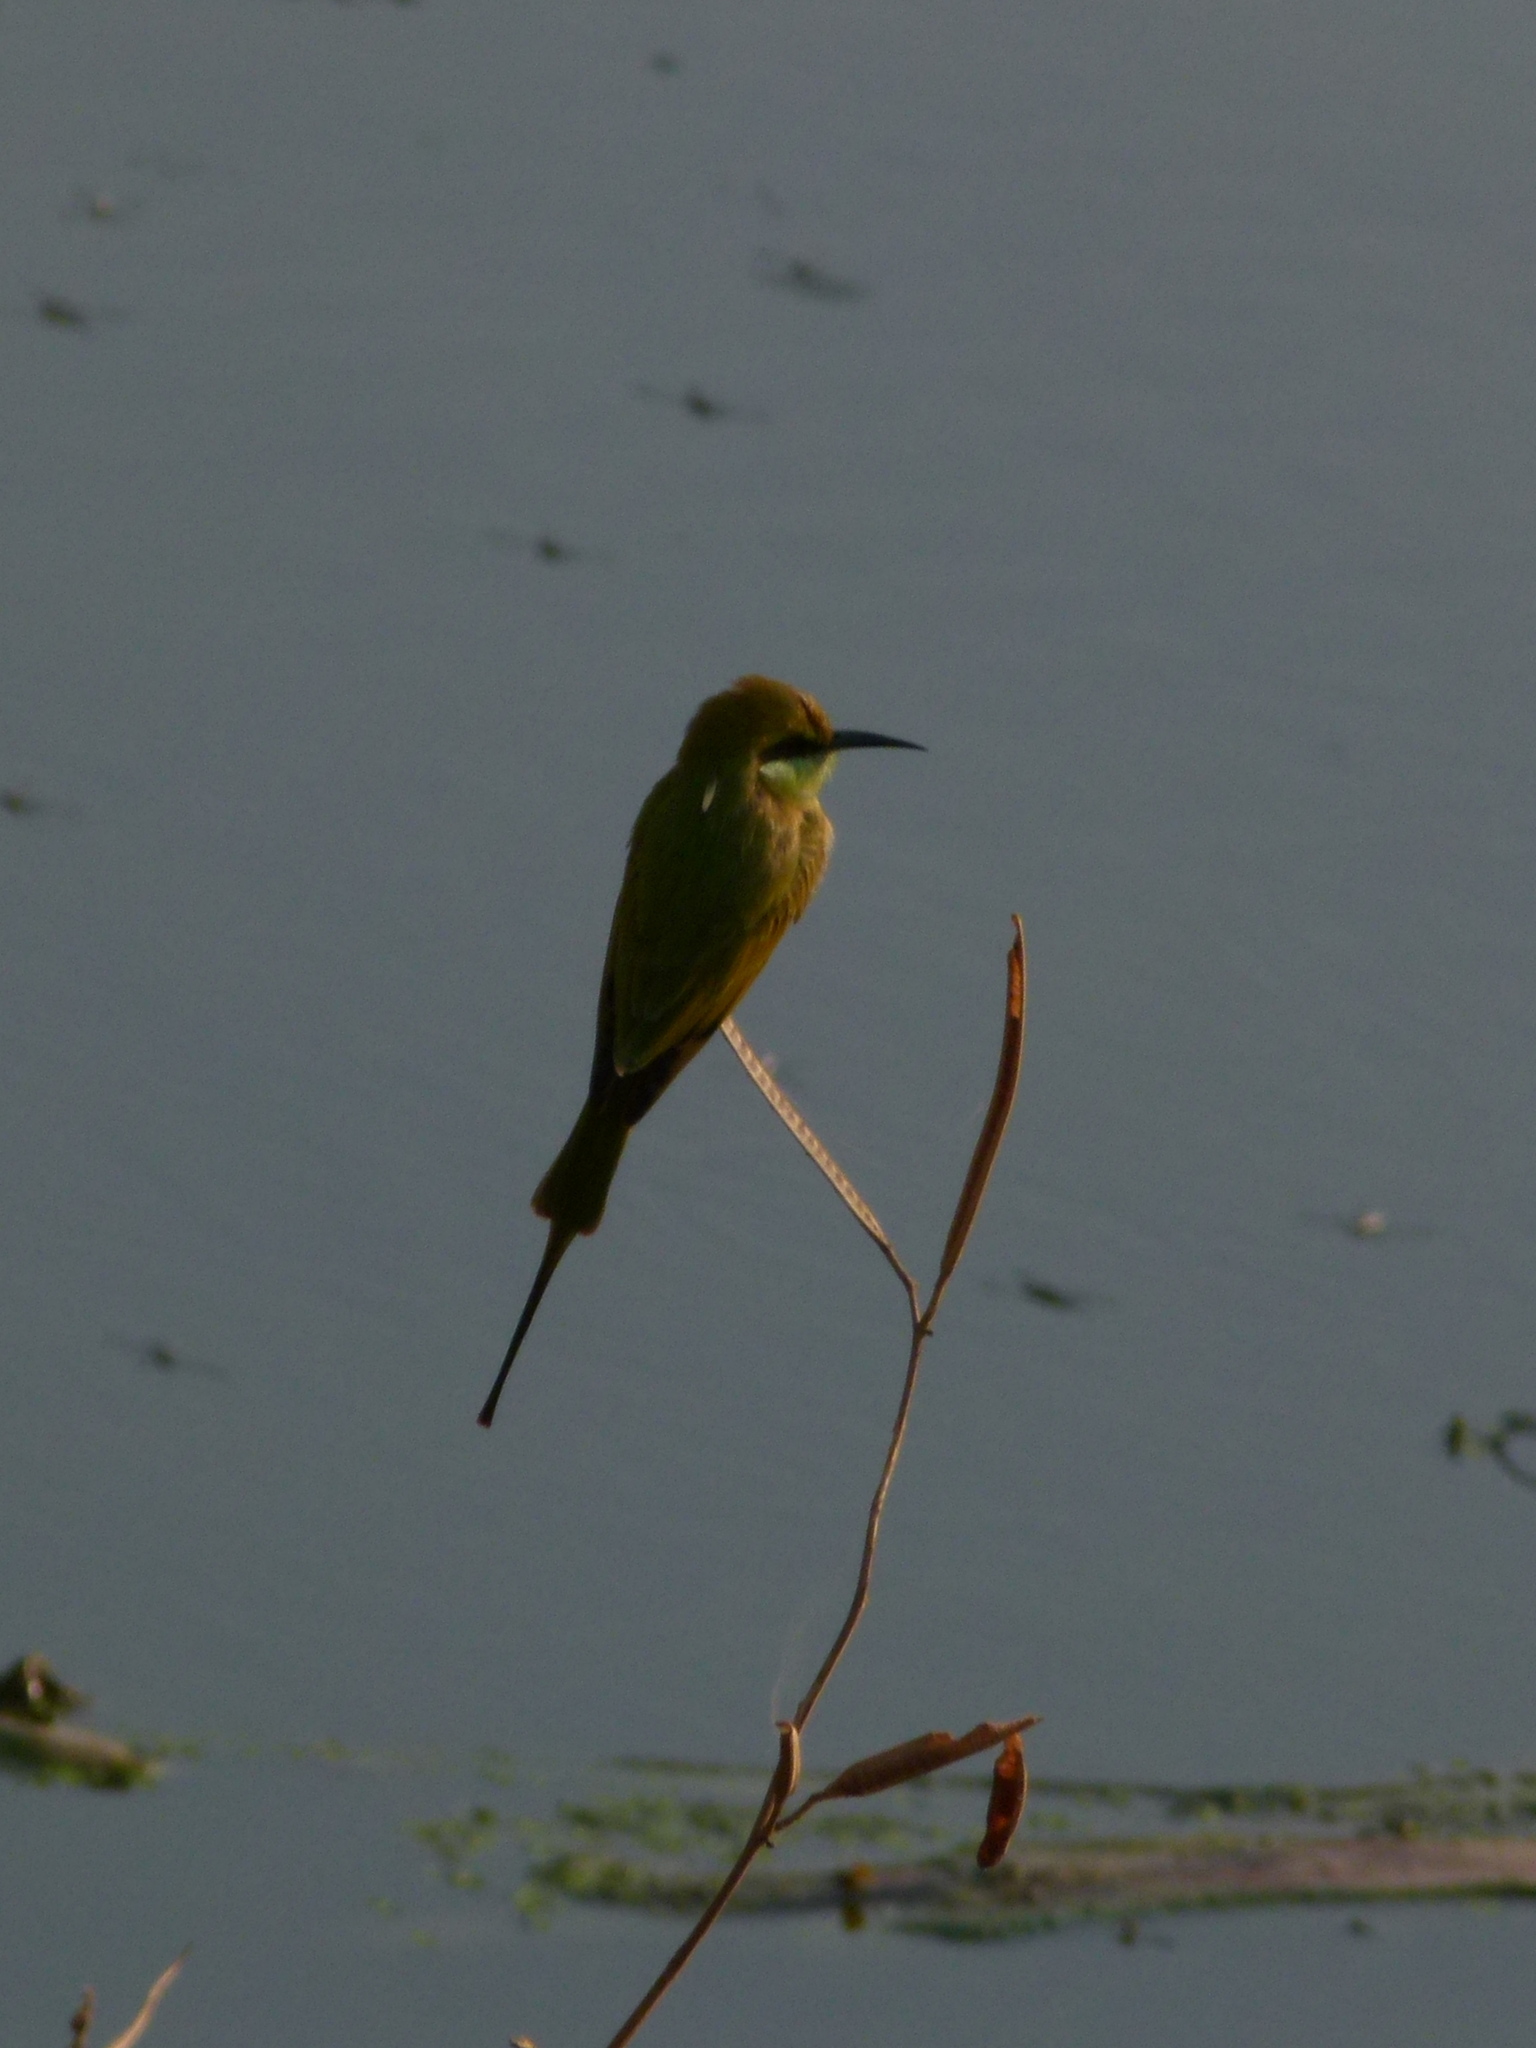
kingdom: Animalia
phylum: Chordata
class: Aves
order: Coraciiformes
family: Meropidae
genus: Merops
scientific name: Merops orientalis
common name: Green bee-eater
